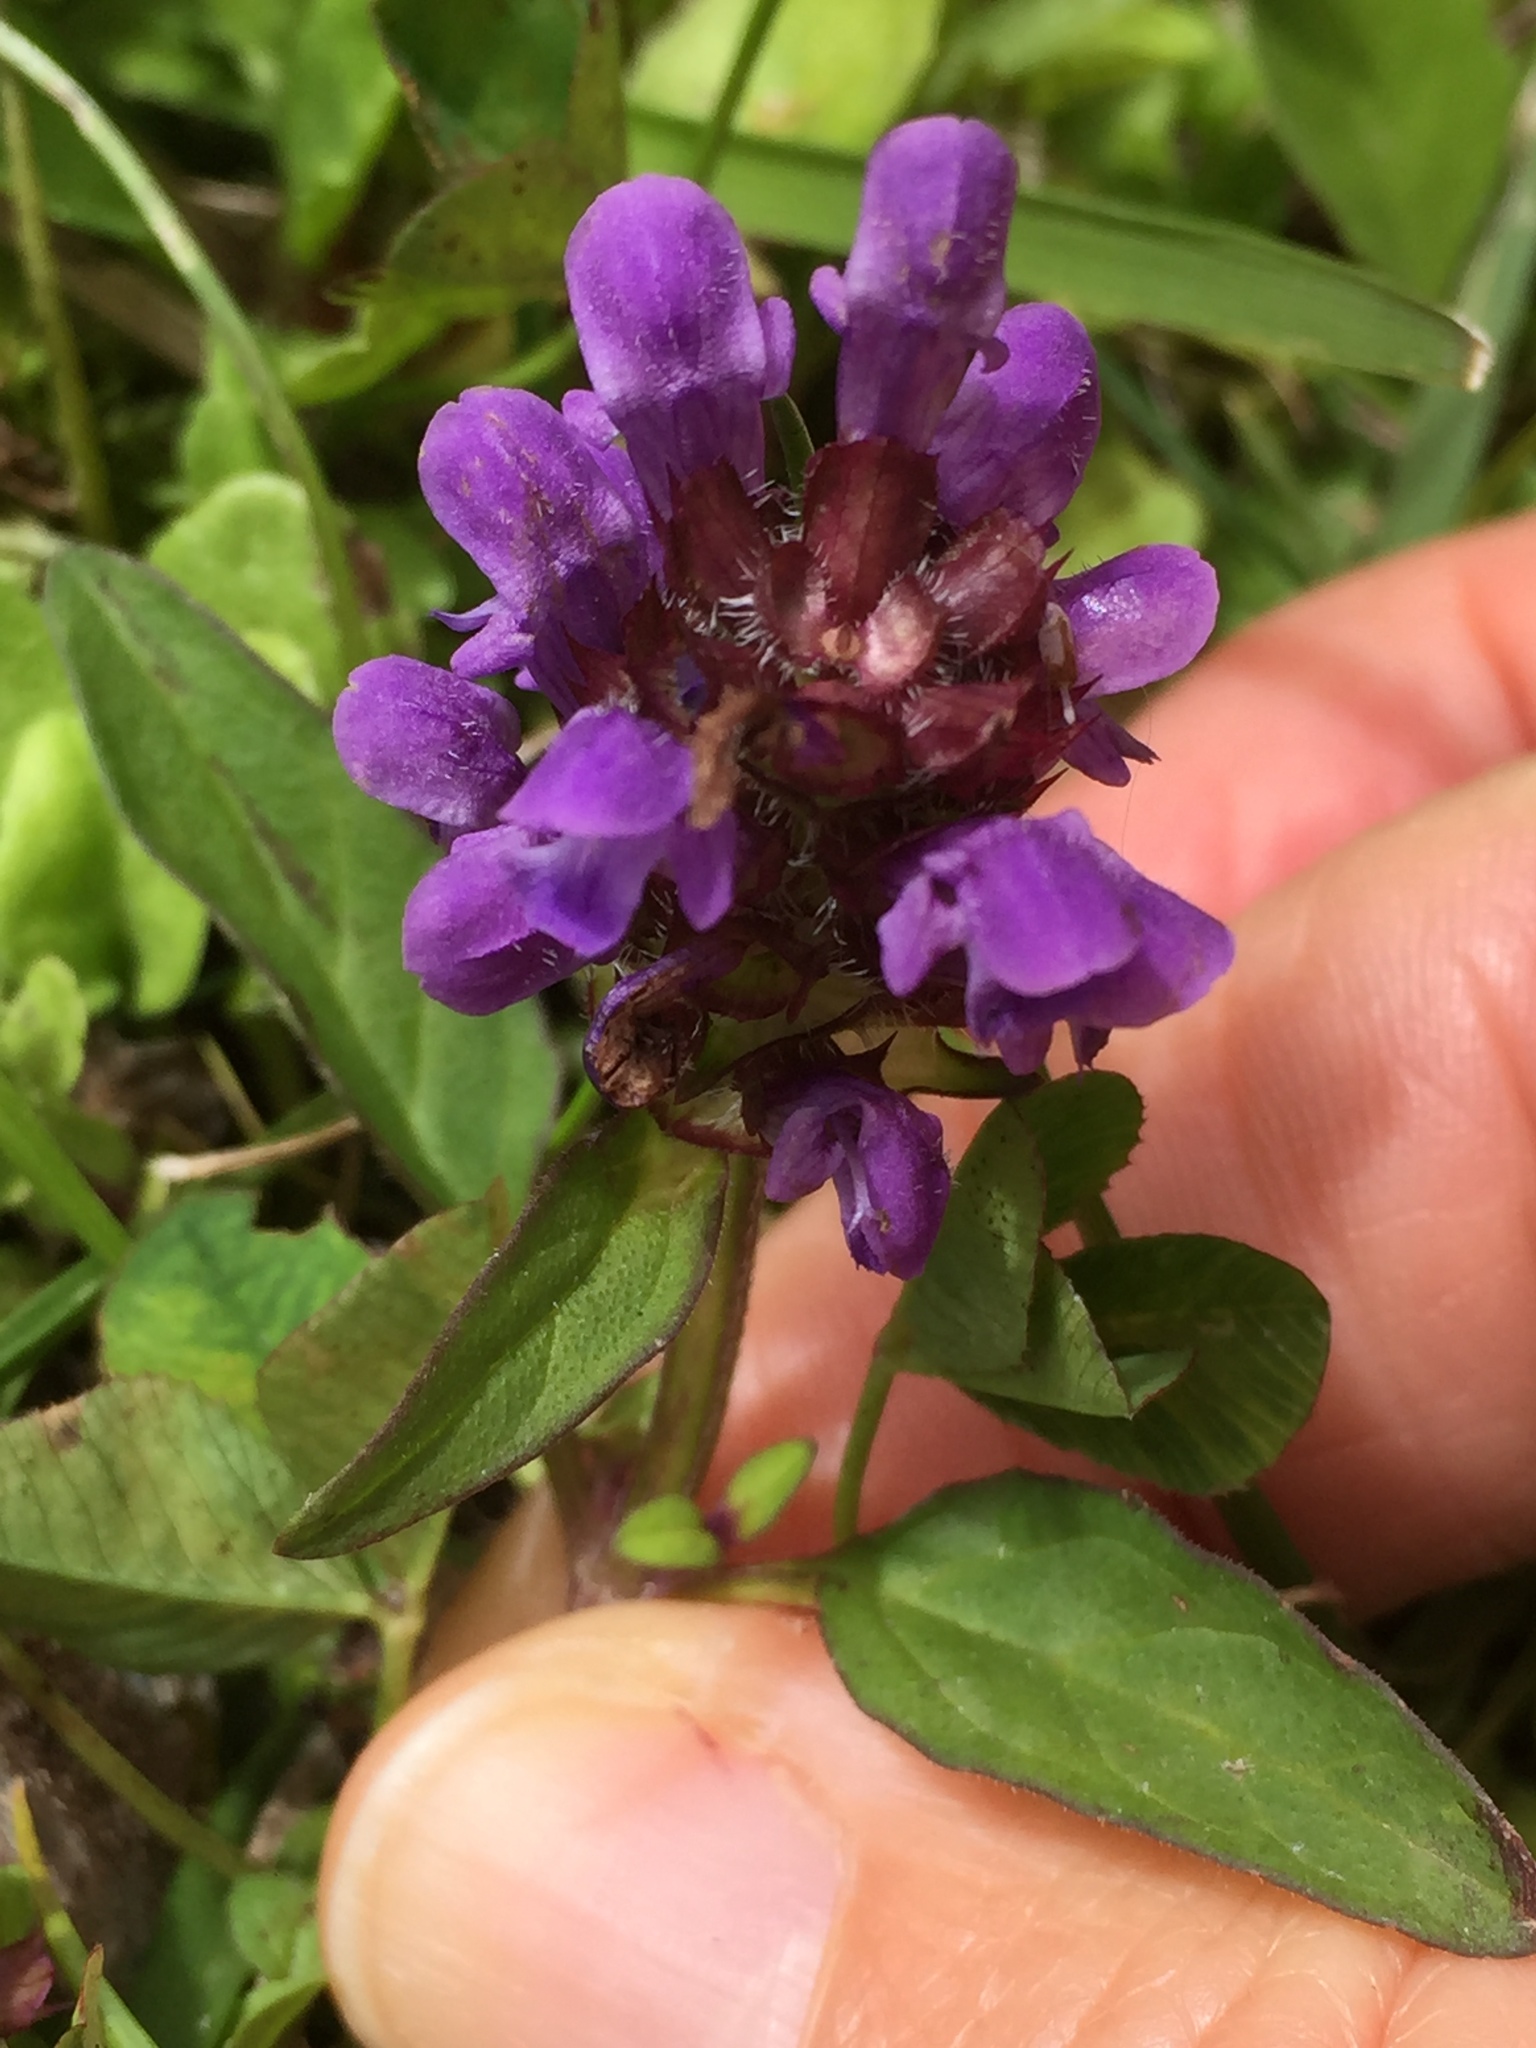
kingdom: Plantae
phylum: Tracheophyta
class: Magnoliopsida
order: Lamiales
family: Lamiaceae
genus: Prunella
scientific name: Prunella vulgaris
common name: Heal-all
